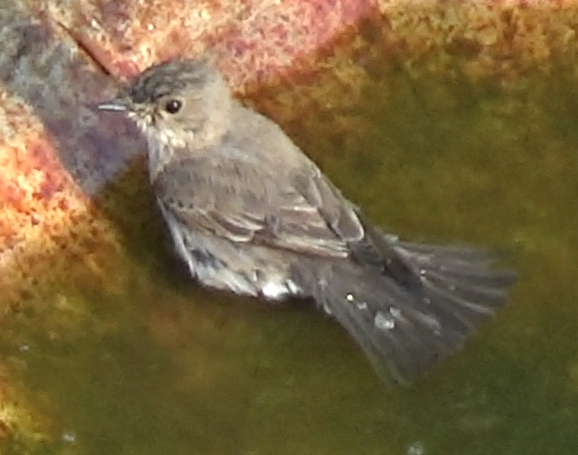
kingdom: Animalia
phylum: Chordata
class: Aves
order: Passeriformes
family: Muscicapidae
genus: Muscicapa
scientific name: Muscicapa striata
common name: Spotted flycatcher
